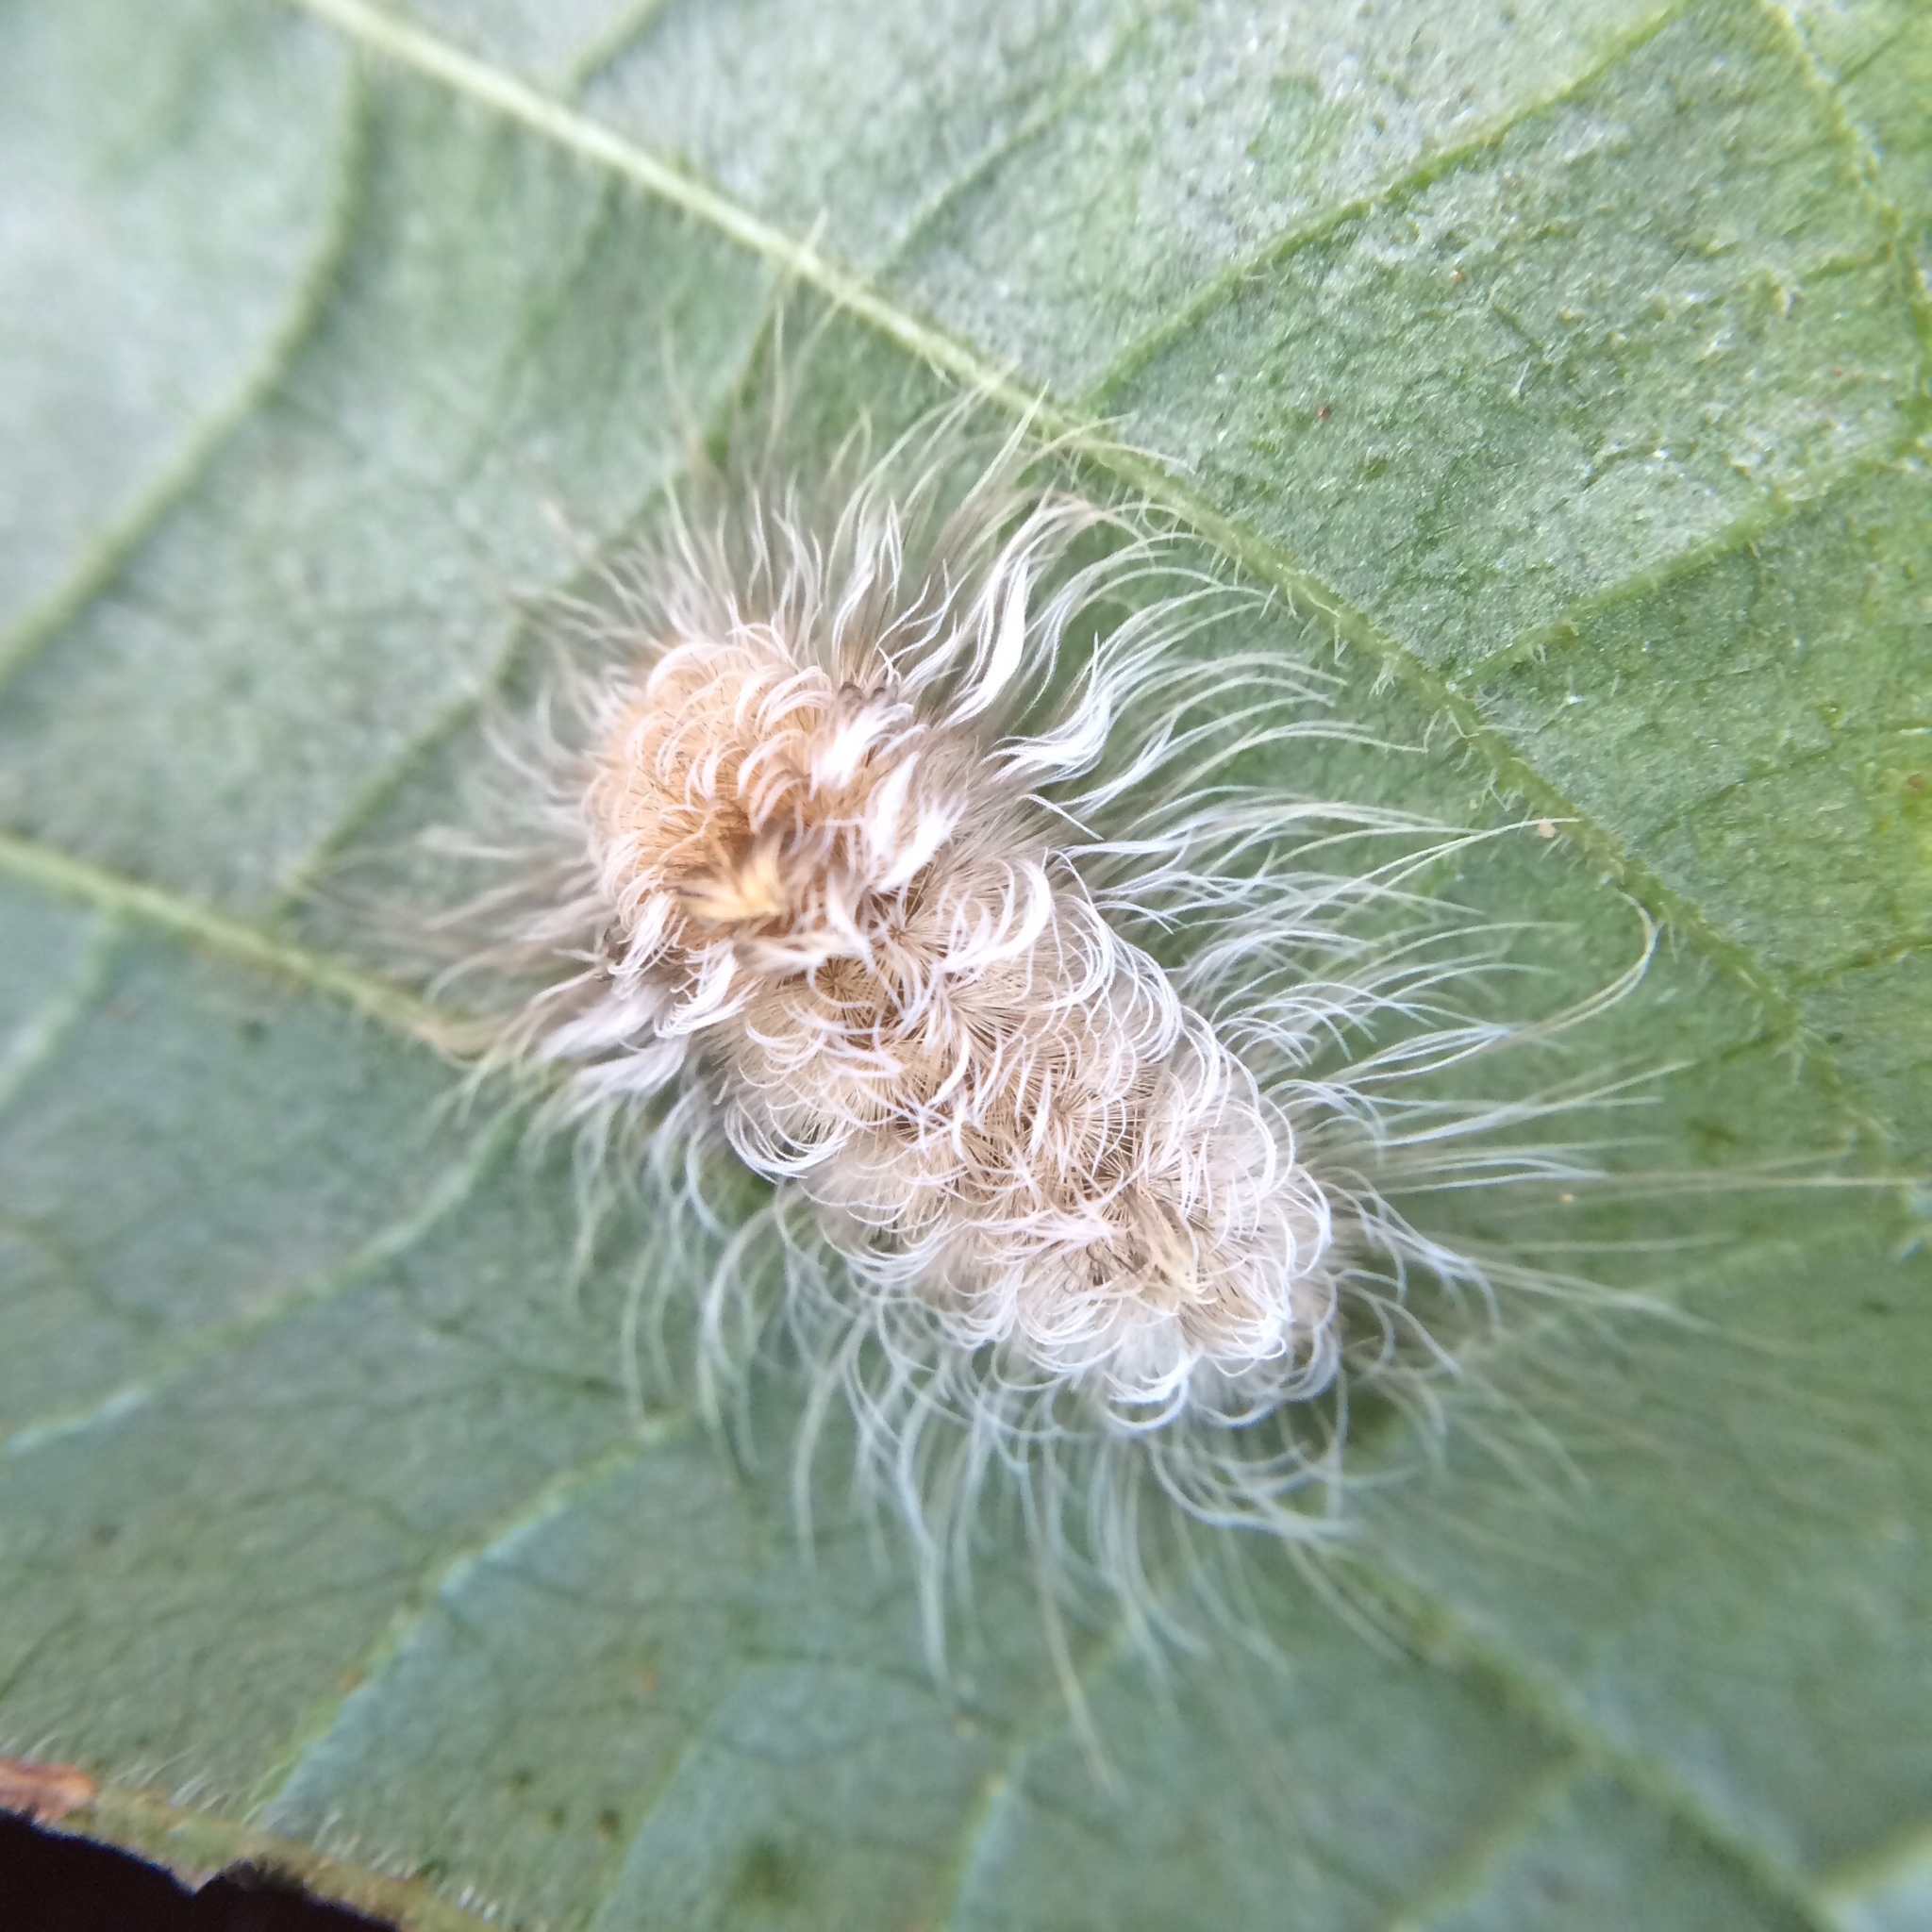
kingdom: Animalia
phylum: Arthropoda
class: Insecta
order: Lepidoptera
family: Erebidae
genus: Tumicla
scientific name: Tumicla sagenaria
